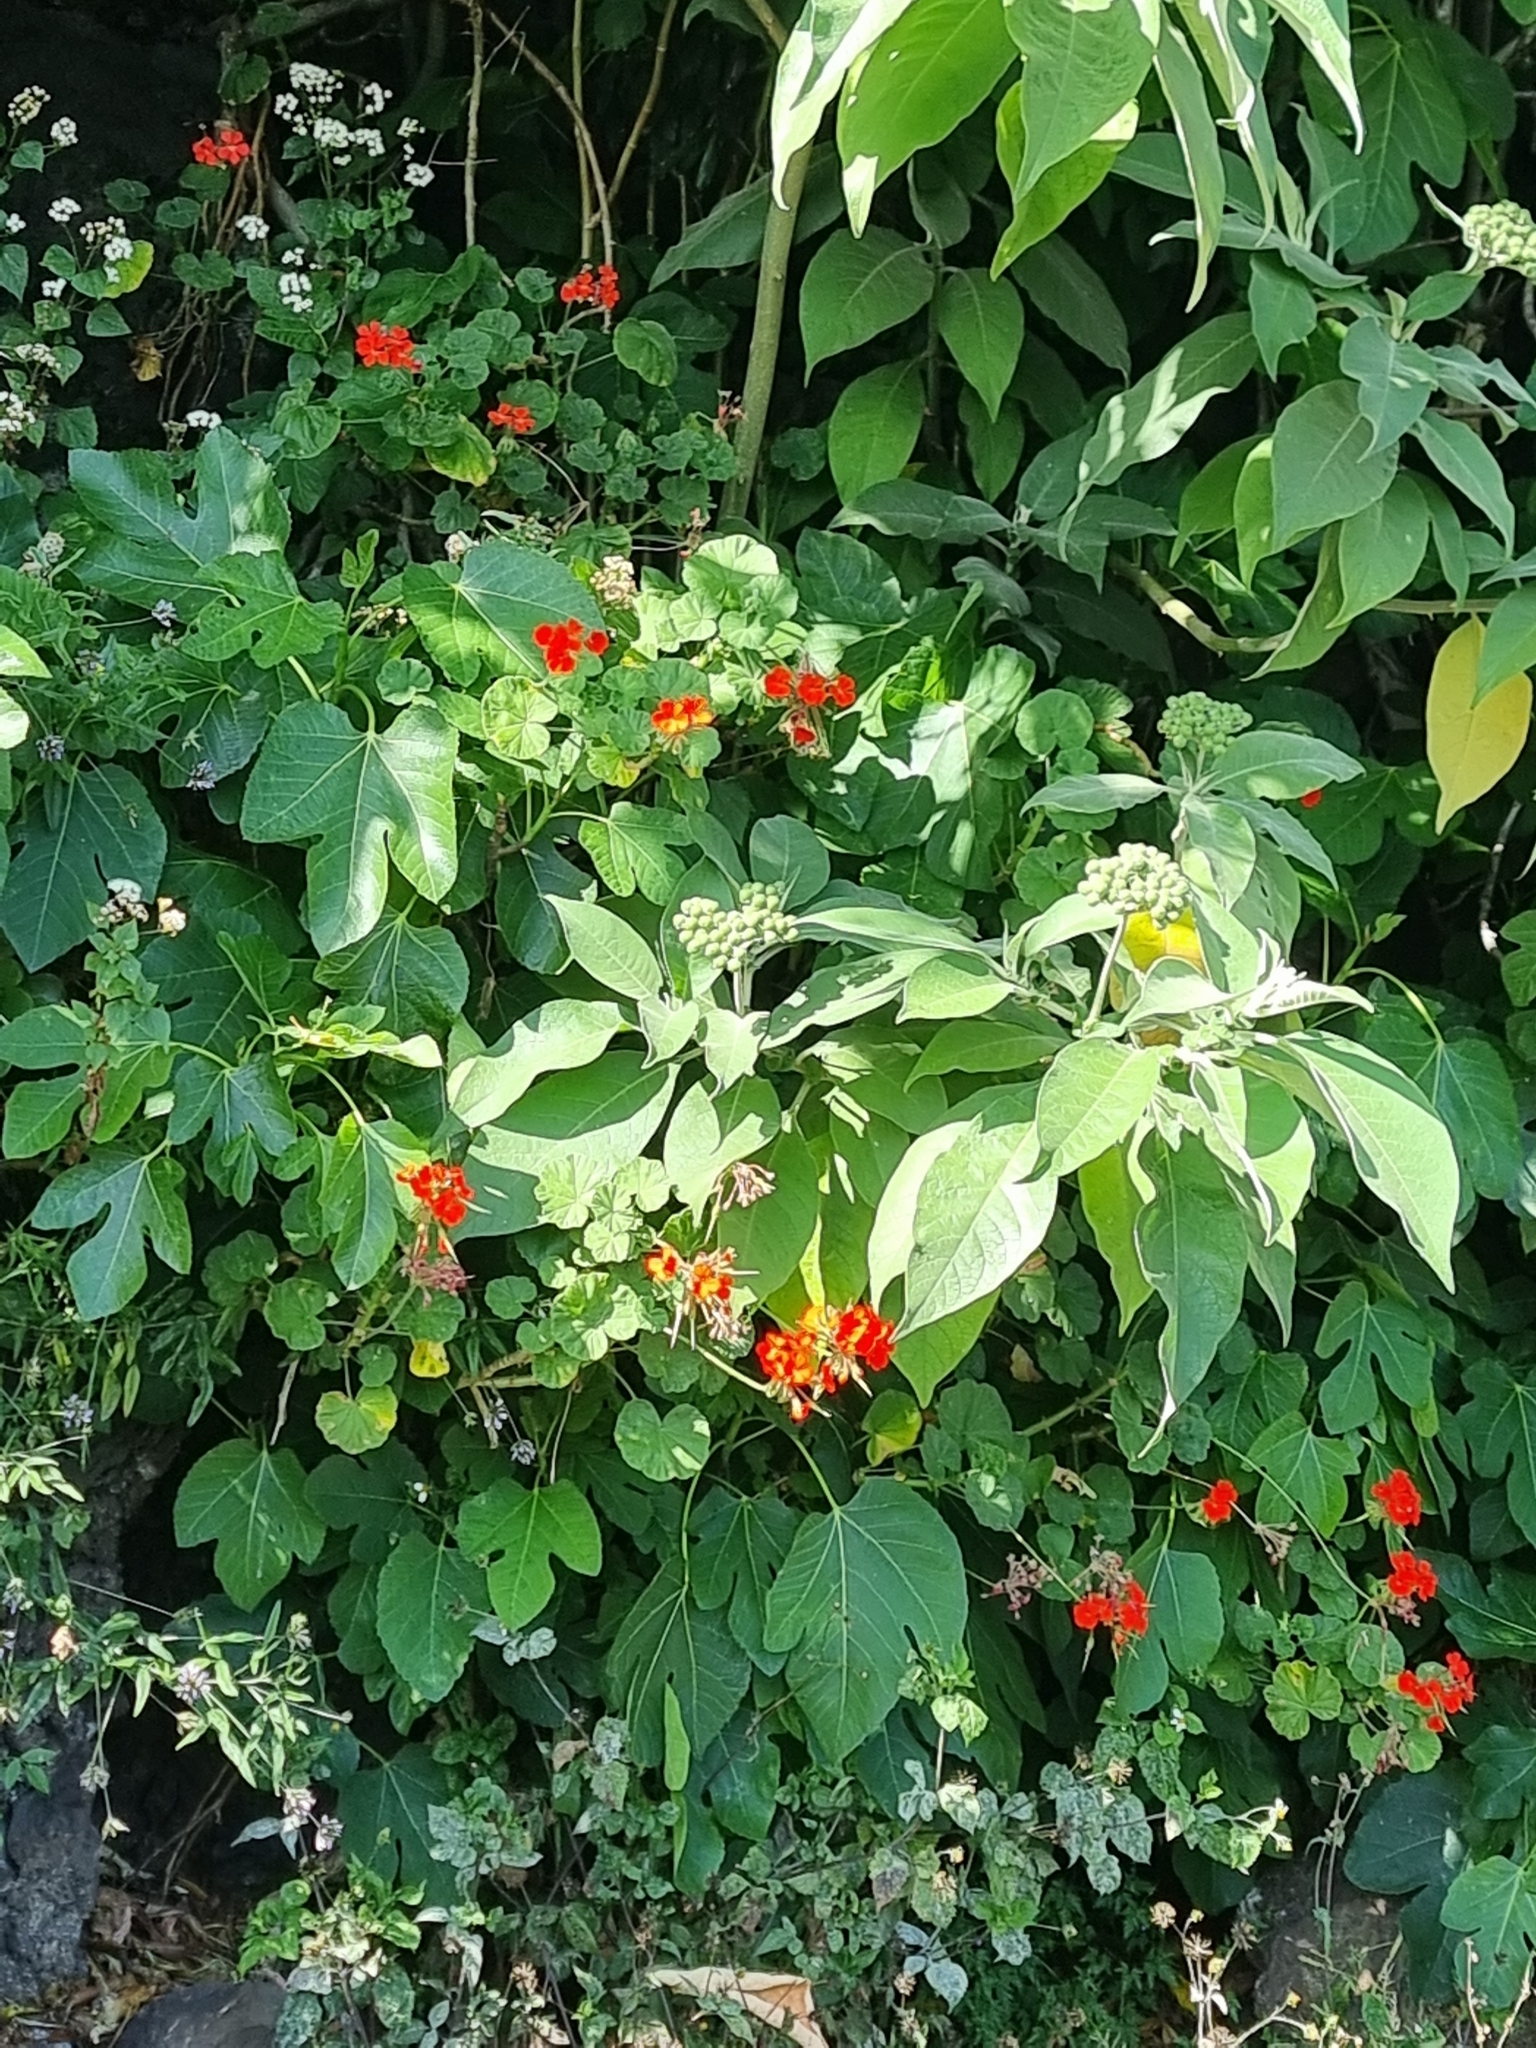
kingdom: Plantae
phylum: Tracheophyta
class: Magnoliopsida
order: Solanales
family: Solanaceae
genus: Solanum
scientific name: Solanum mauritianum
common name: Earleaf nightshade
